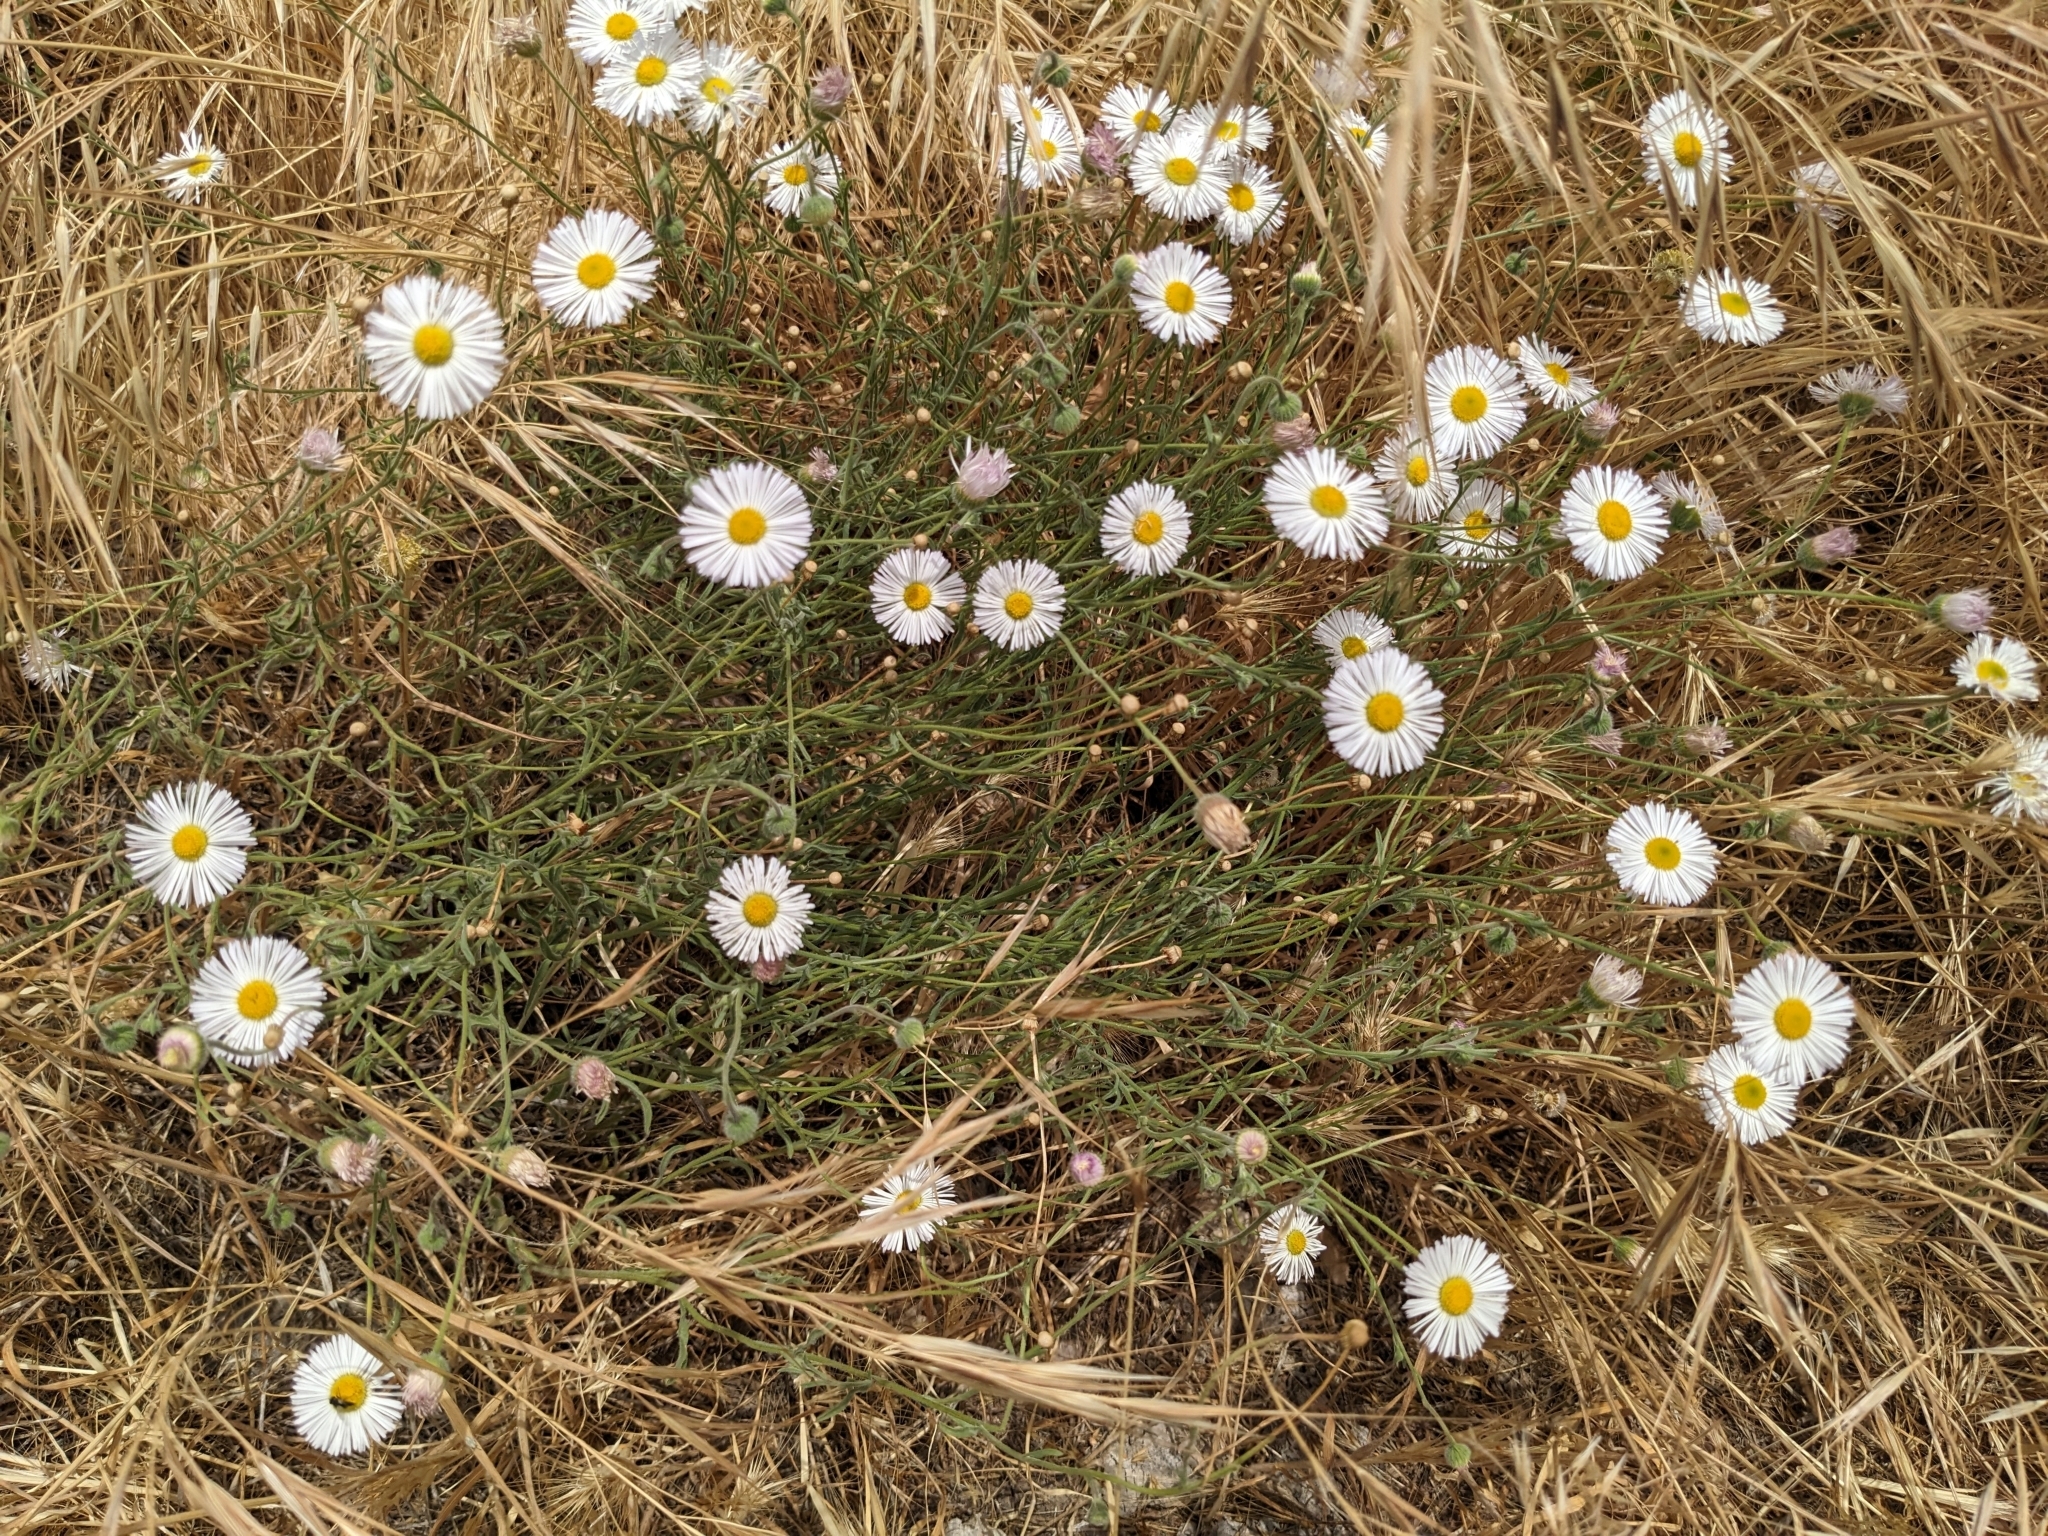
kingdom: Plantae
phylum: Tracheophyta
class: Magnoliopsida
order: Asterales
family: Asteraceae
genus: Erigeron
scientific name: Erigeron divergens
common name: Diffuse fleabane
